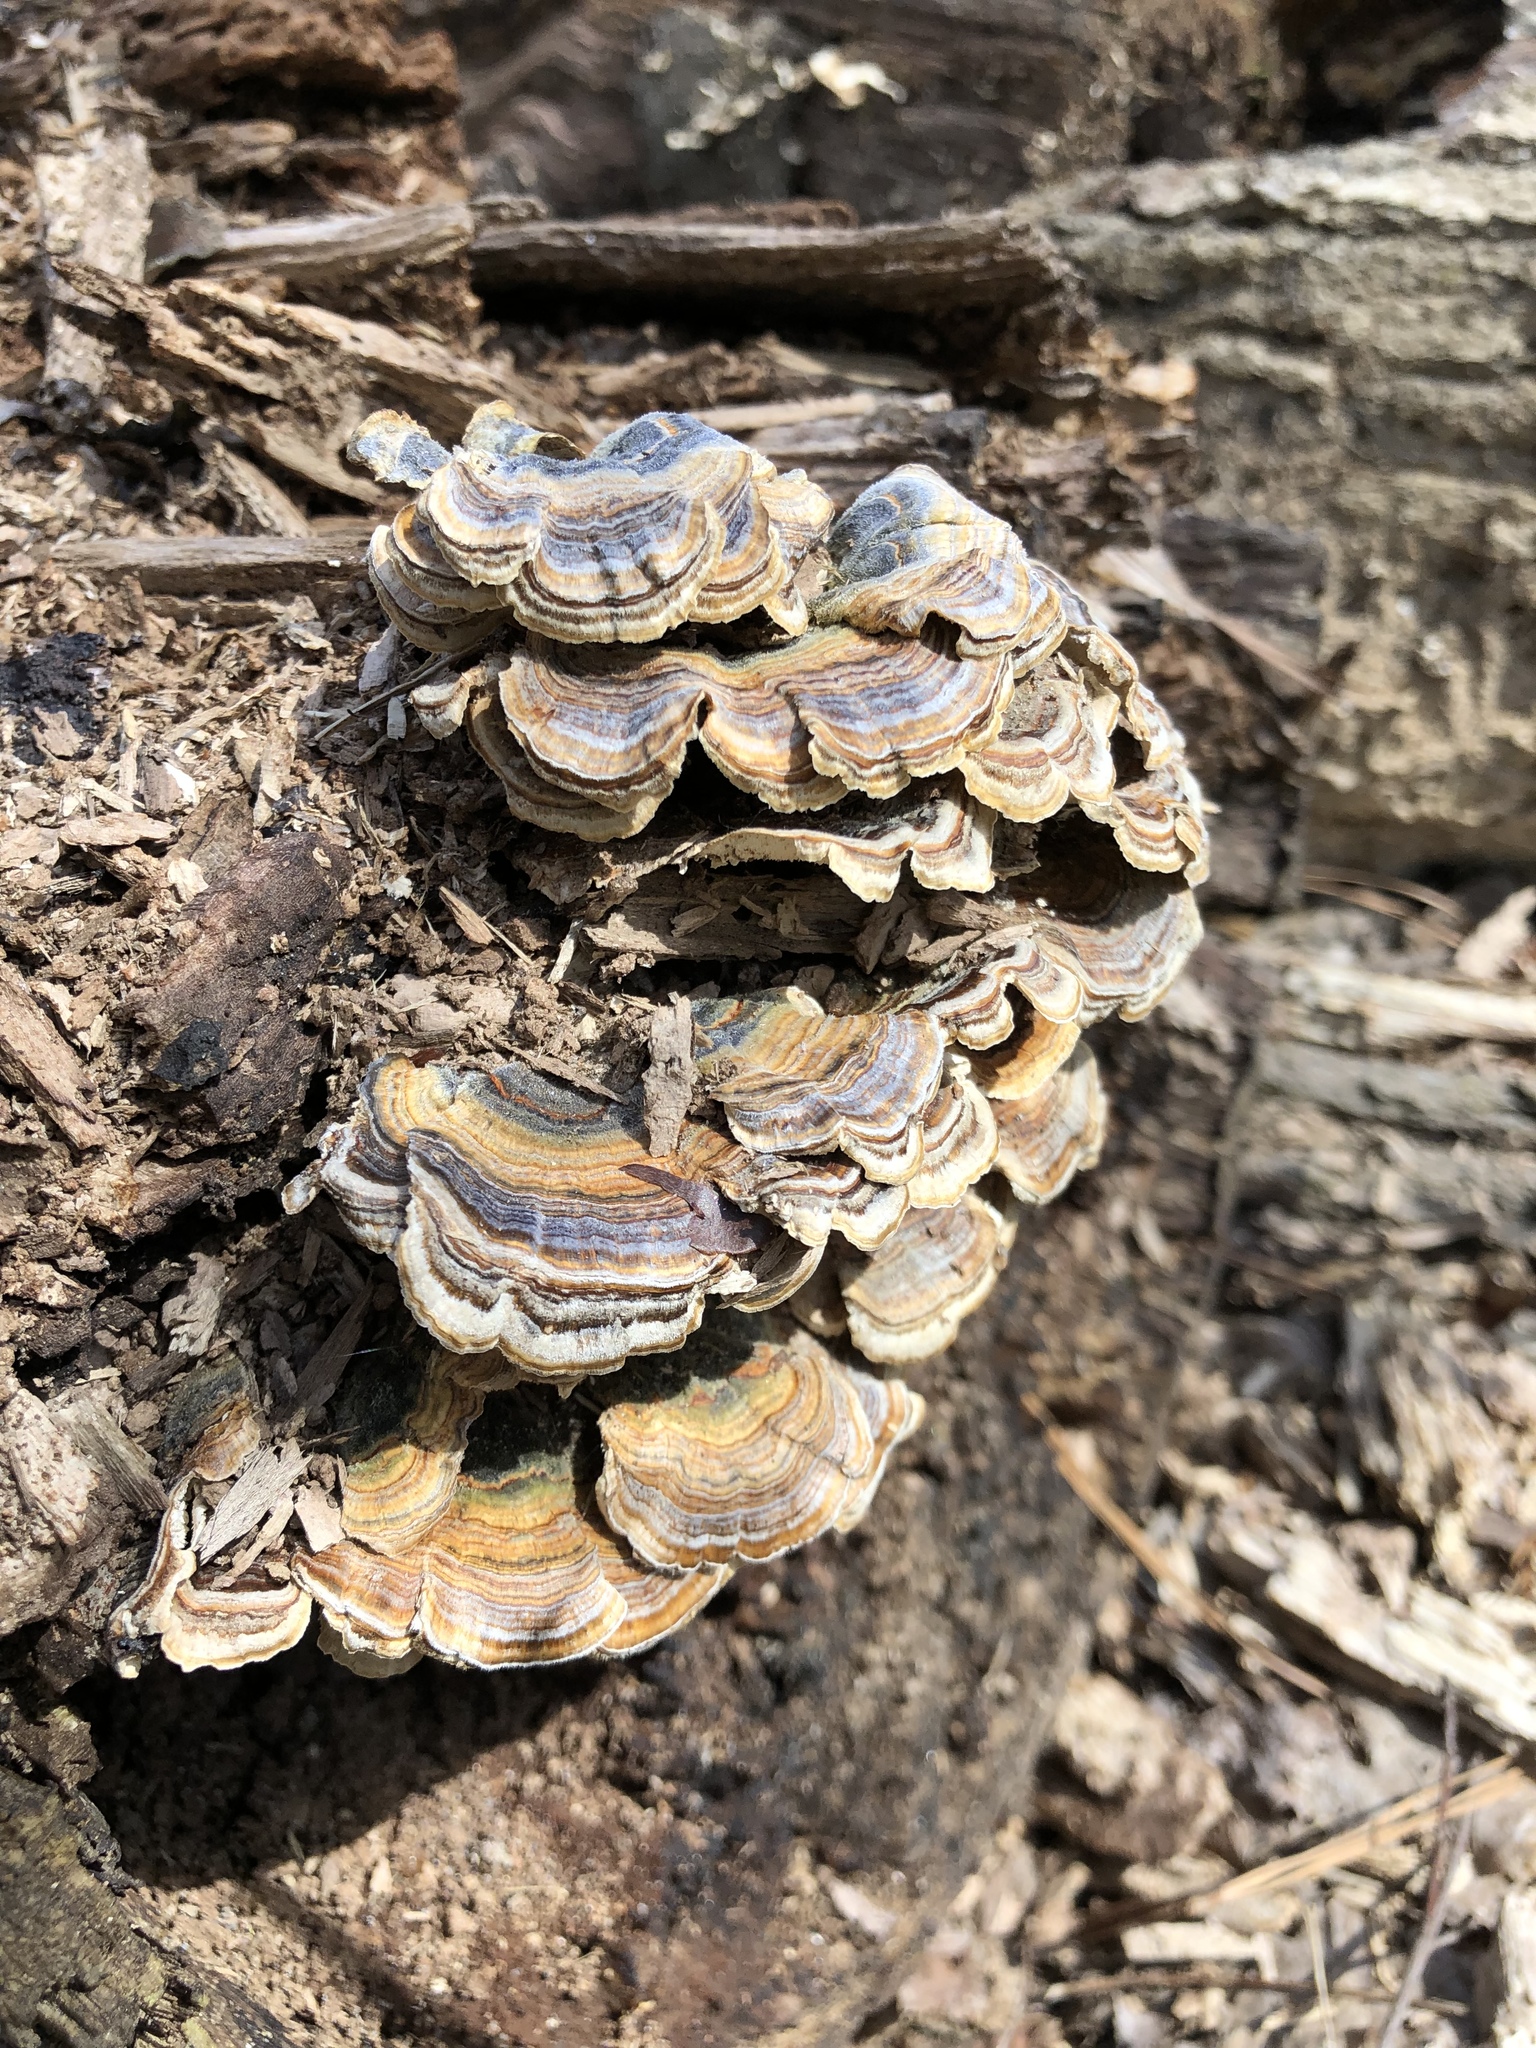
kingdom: Fungi
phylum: Basidiomycota
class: Agaricomycetes
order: Polyporales
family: Polyporaceae
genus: Trametes
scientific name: Trametes versicolor
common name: Turkeytail
